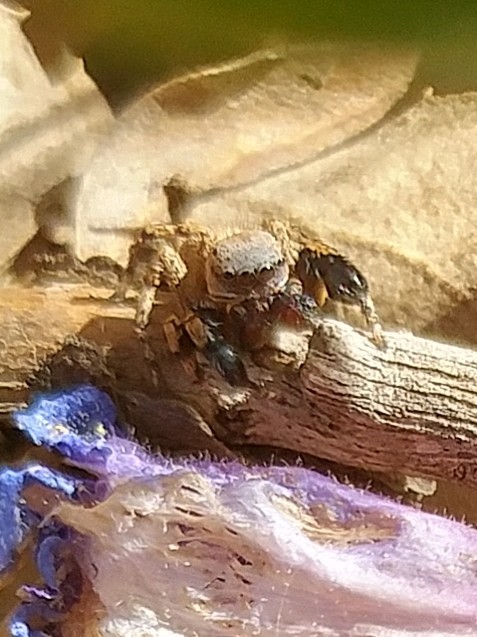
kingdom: Animalia
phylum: Arthropoda
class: Arachnida
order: Araneae
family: Salticidae
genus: Habronattus
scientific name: Habronattus oregonensis
